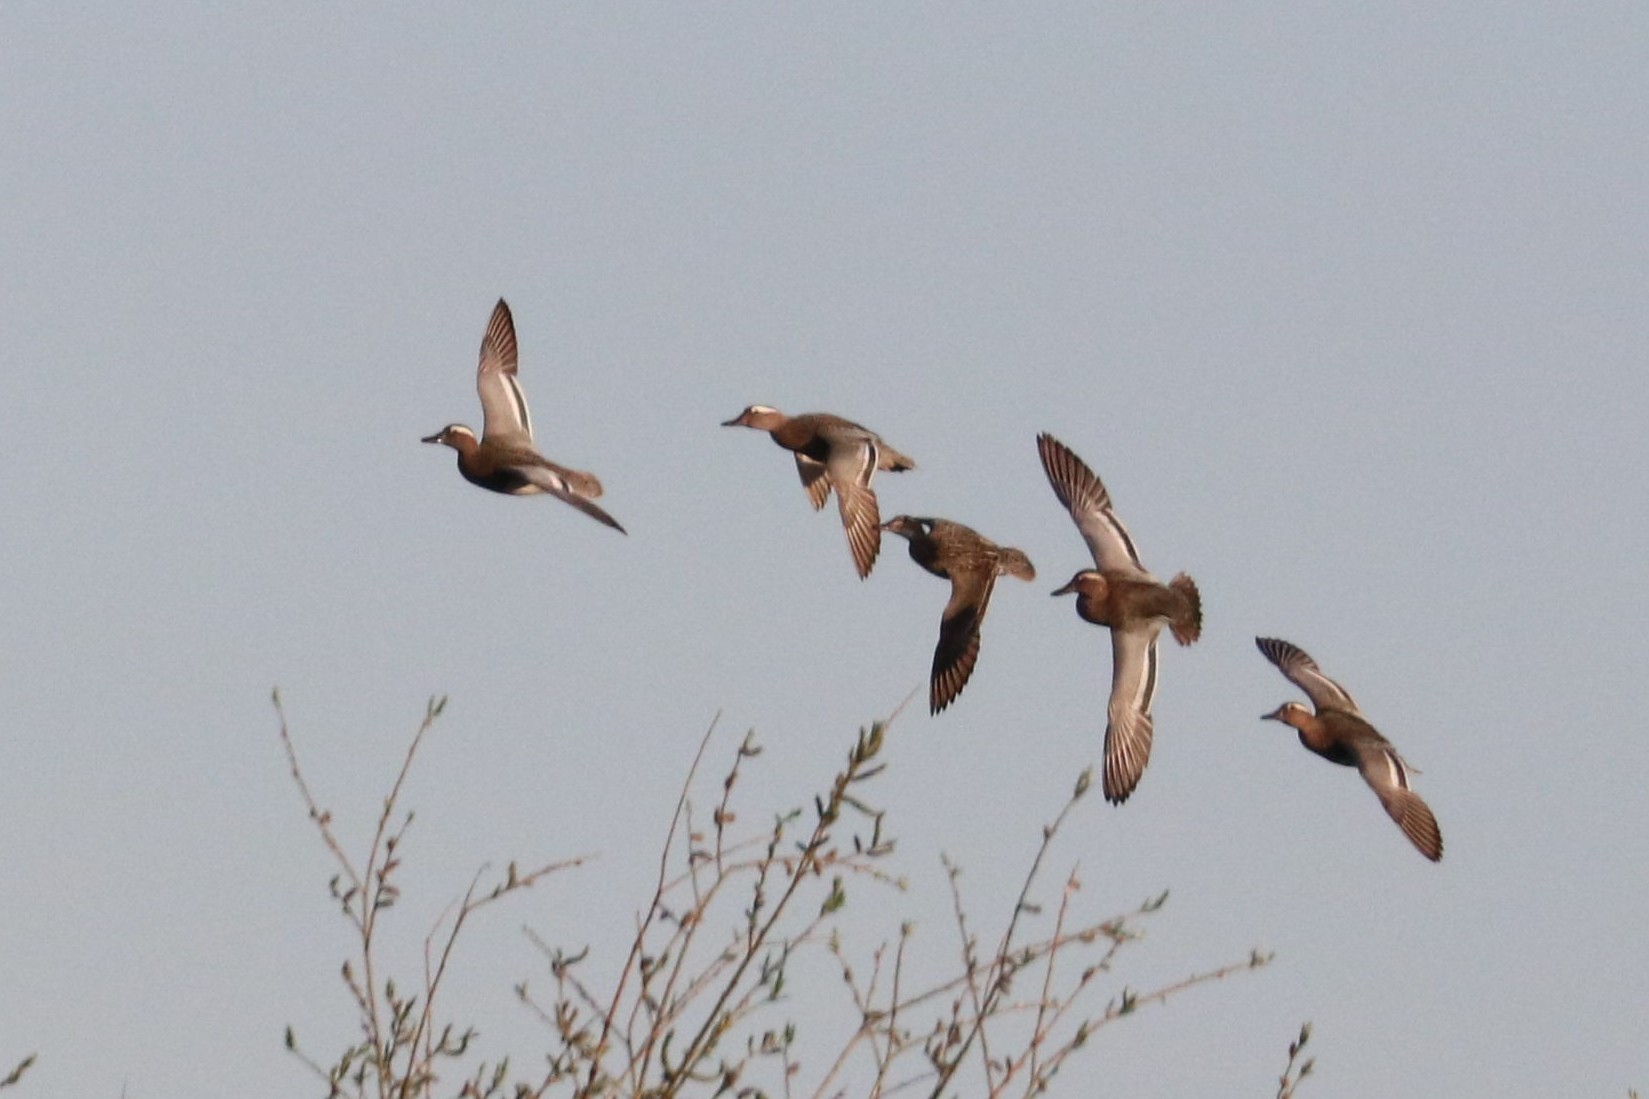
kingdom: Animalia
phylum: Chordata
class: Aves
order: Anseriformes
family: Anatidae
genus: Spatula
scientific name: Spatula querquedula
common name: Garganey
